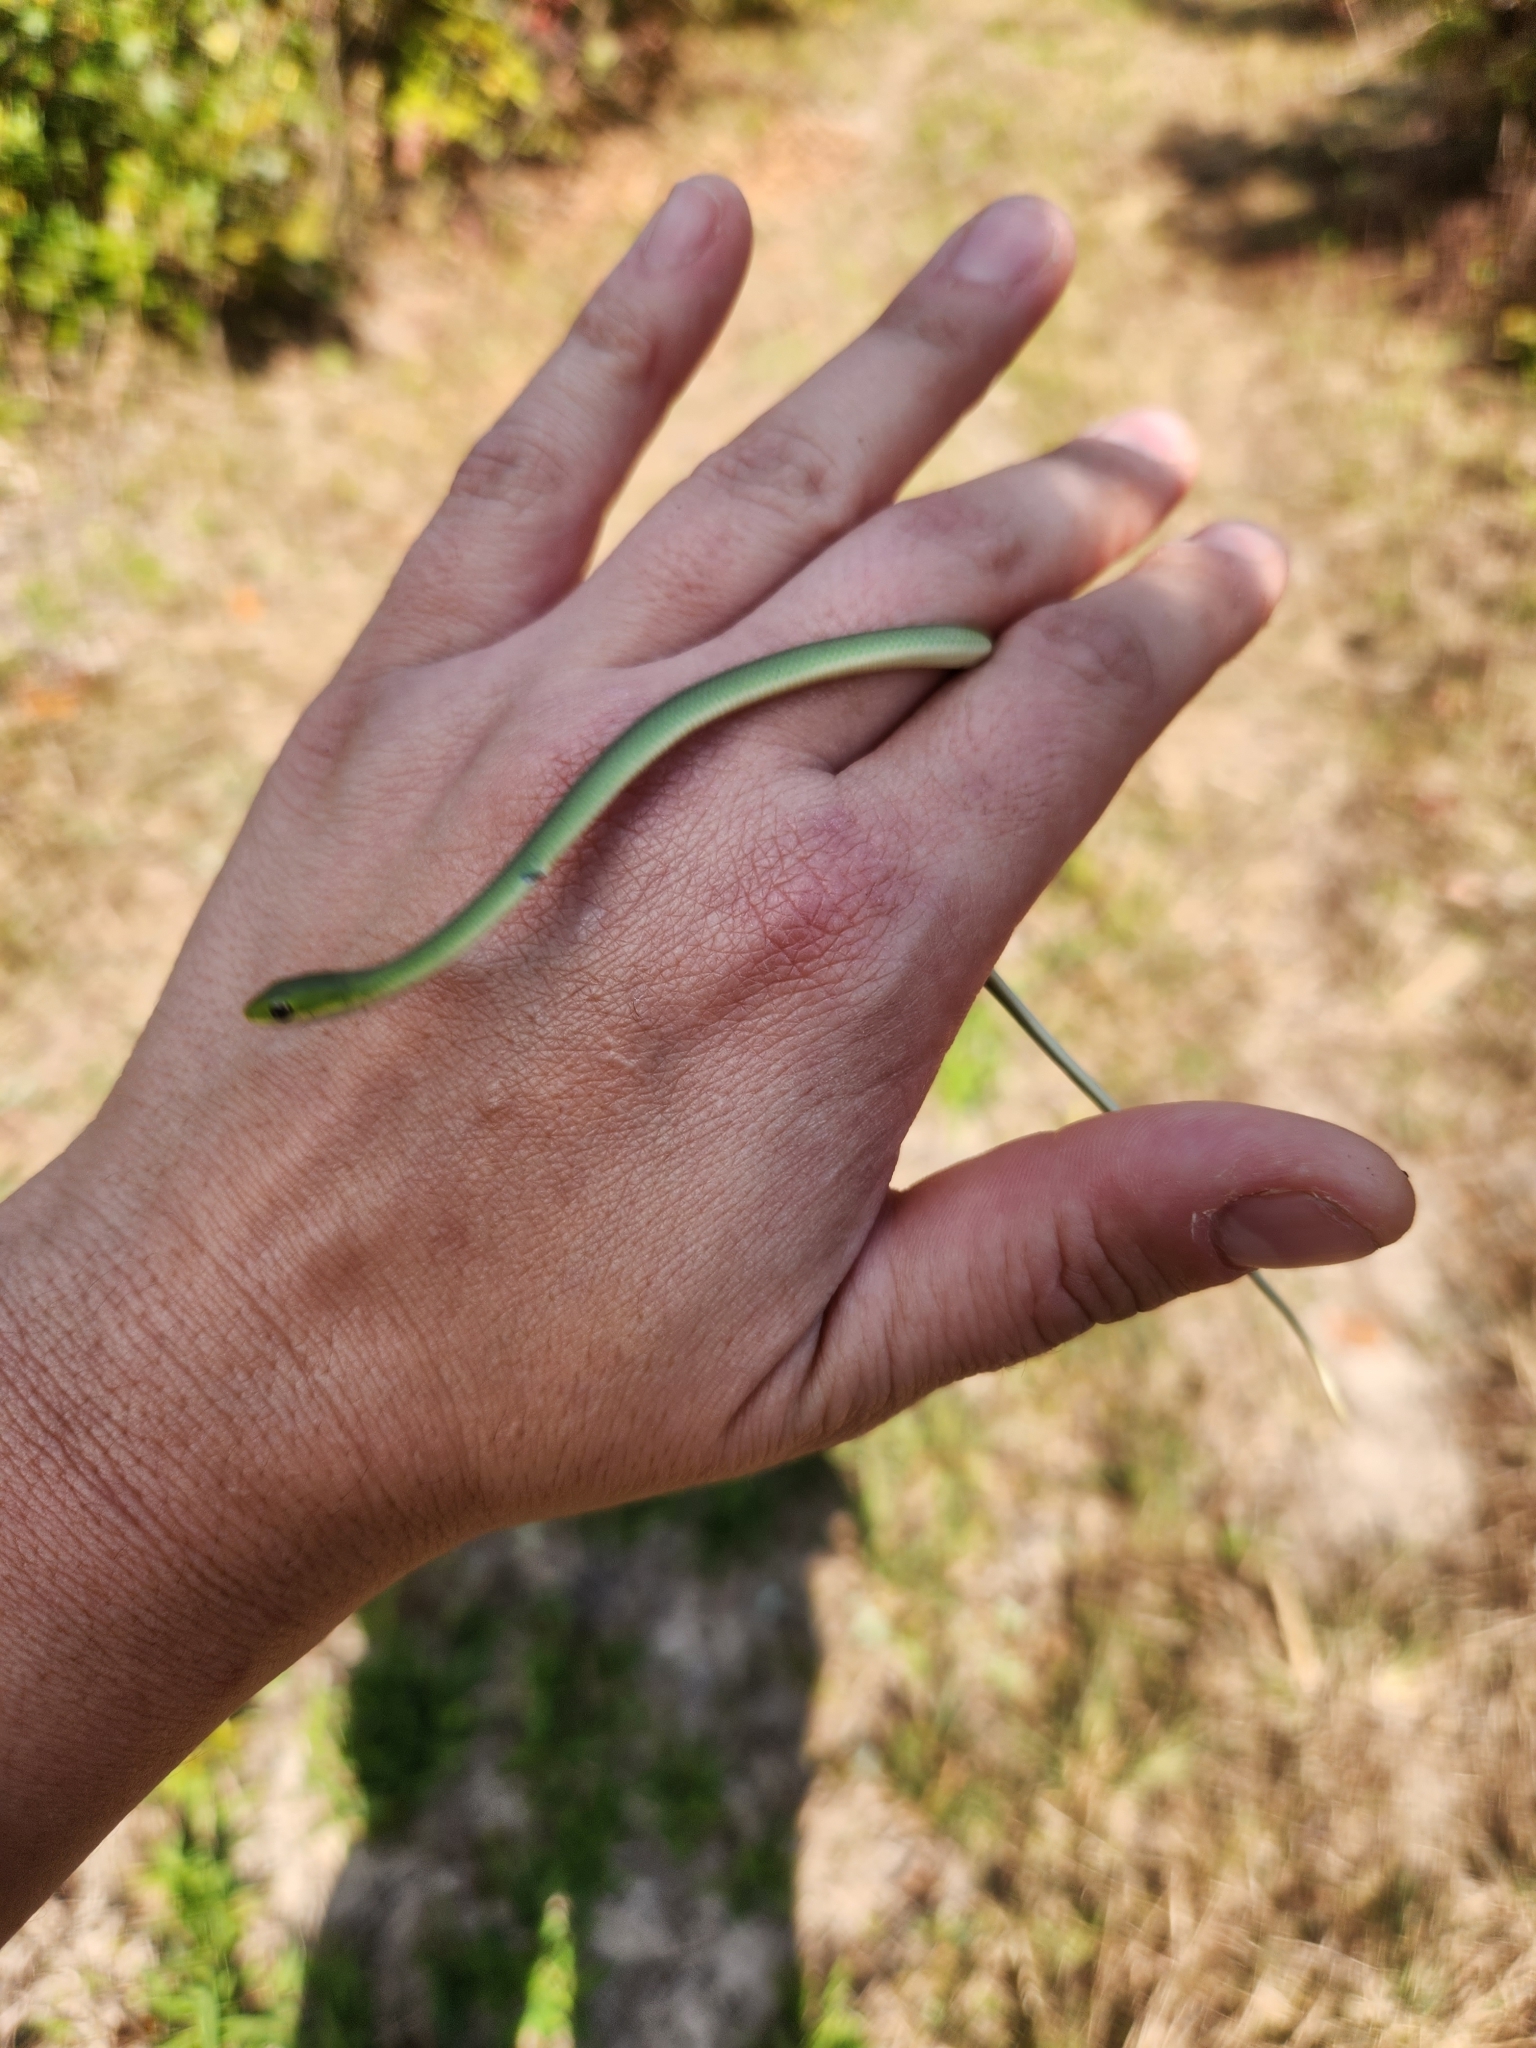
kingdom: Animalia
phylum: Chordata
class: Squamata
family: Colubridae
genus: Opheodrys
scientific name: Opheodrys aestivus
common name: Rough greensnake
